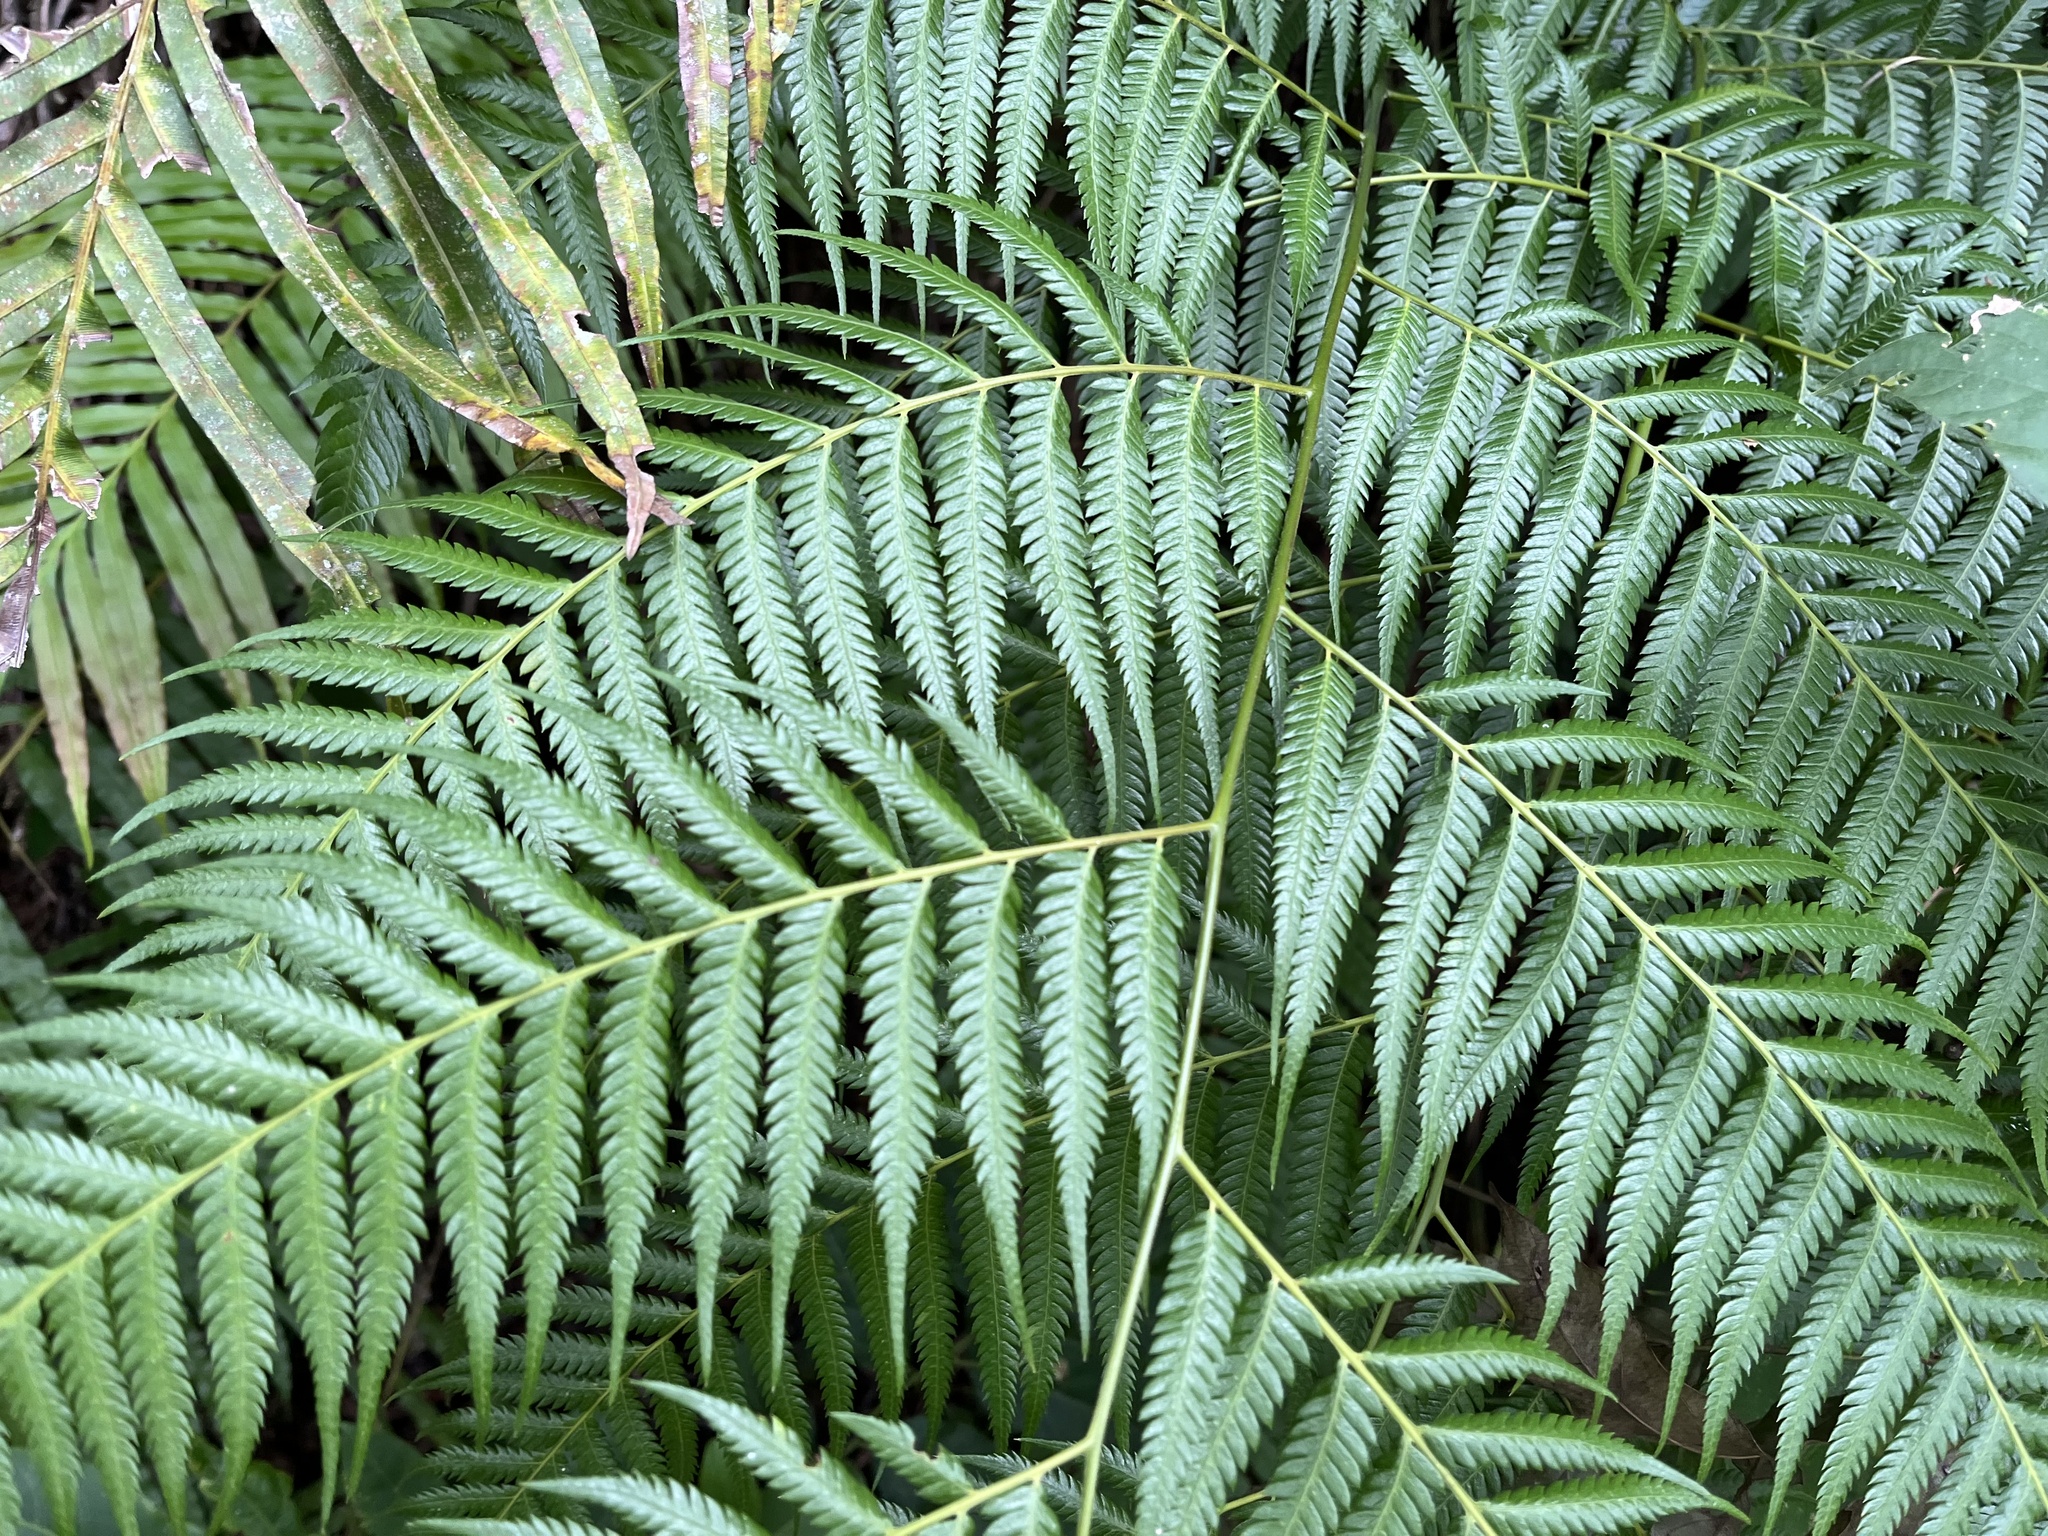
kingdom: Plantae
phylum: Tracheophyta
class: Polypodiopsida
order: Cyatheales
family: Cibotiaceae
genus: Cibotium
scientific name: Cibotium taiwanense
